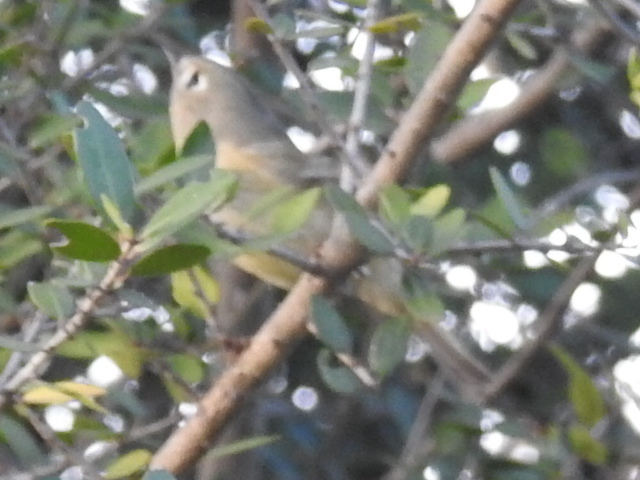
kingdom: Animalia
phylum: Chordata
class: Aves
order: Passeriformes
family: Regulidae
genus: Regulus
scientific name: Regulus calendula
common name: Ruby-crowned kinglet
